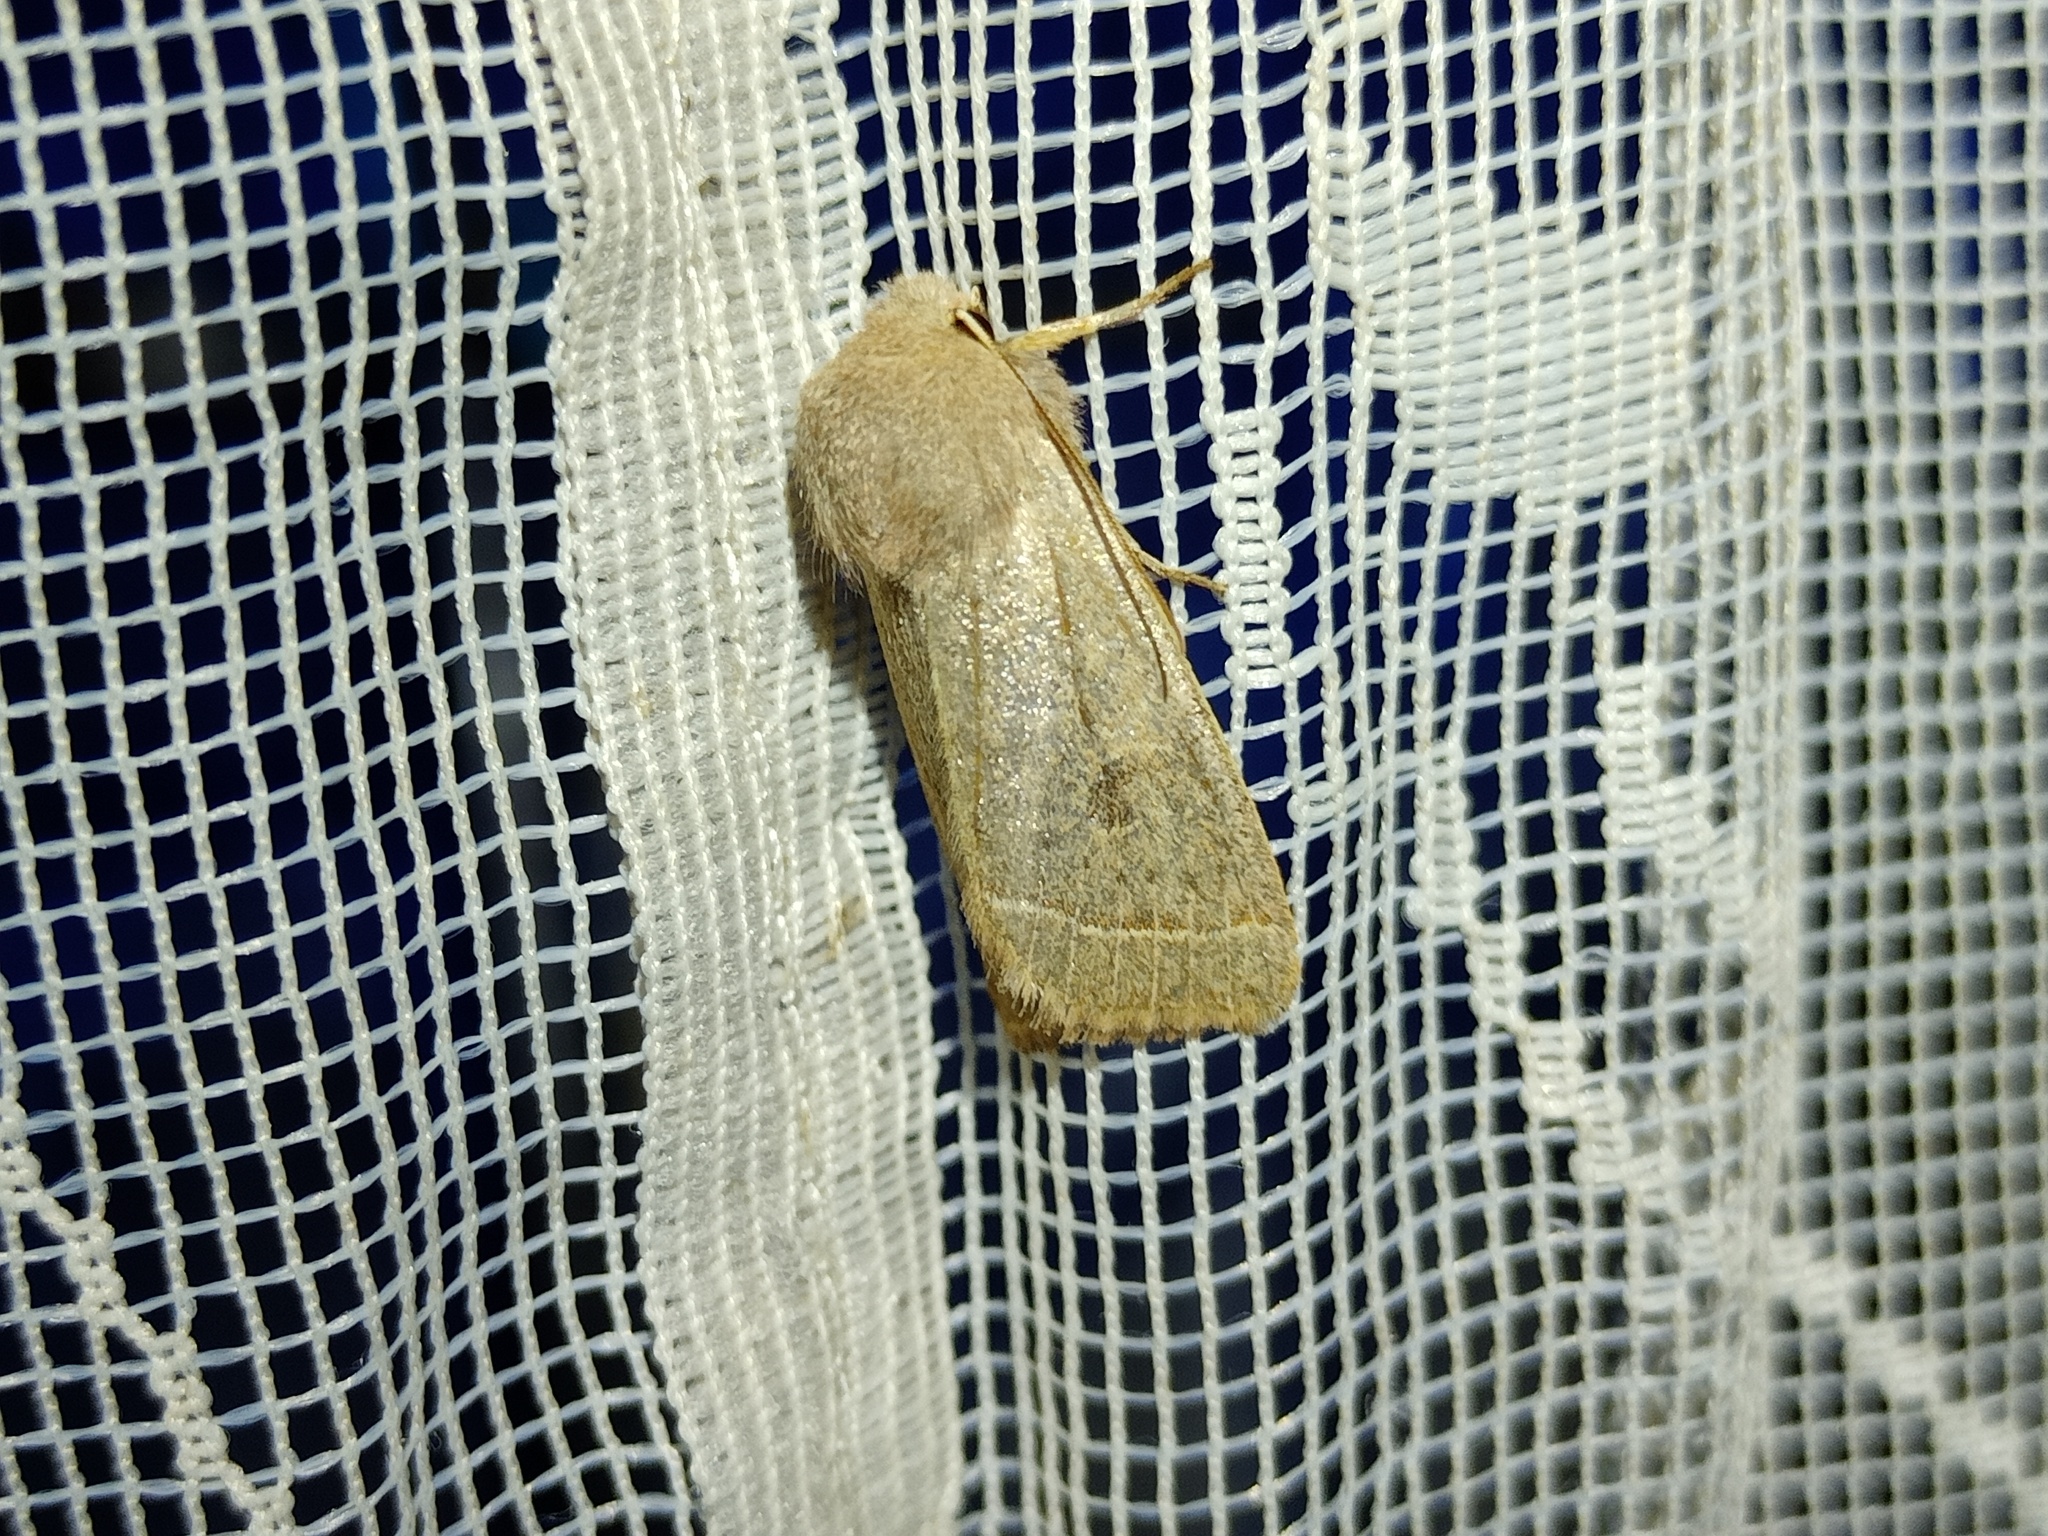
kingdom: Animalia
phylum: Arthropoda
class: Insecta
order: Lepidoptera
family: Noctuidae
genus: Orthosia
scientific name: Orthosia cerasi
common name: Common quaker
